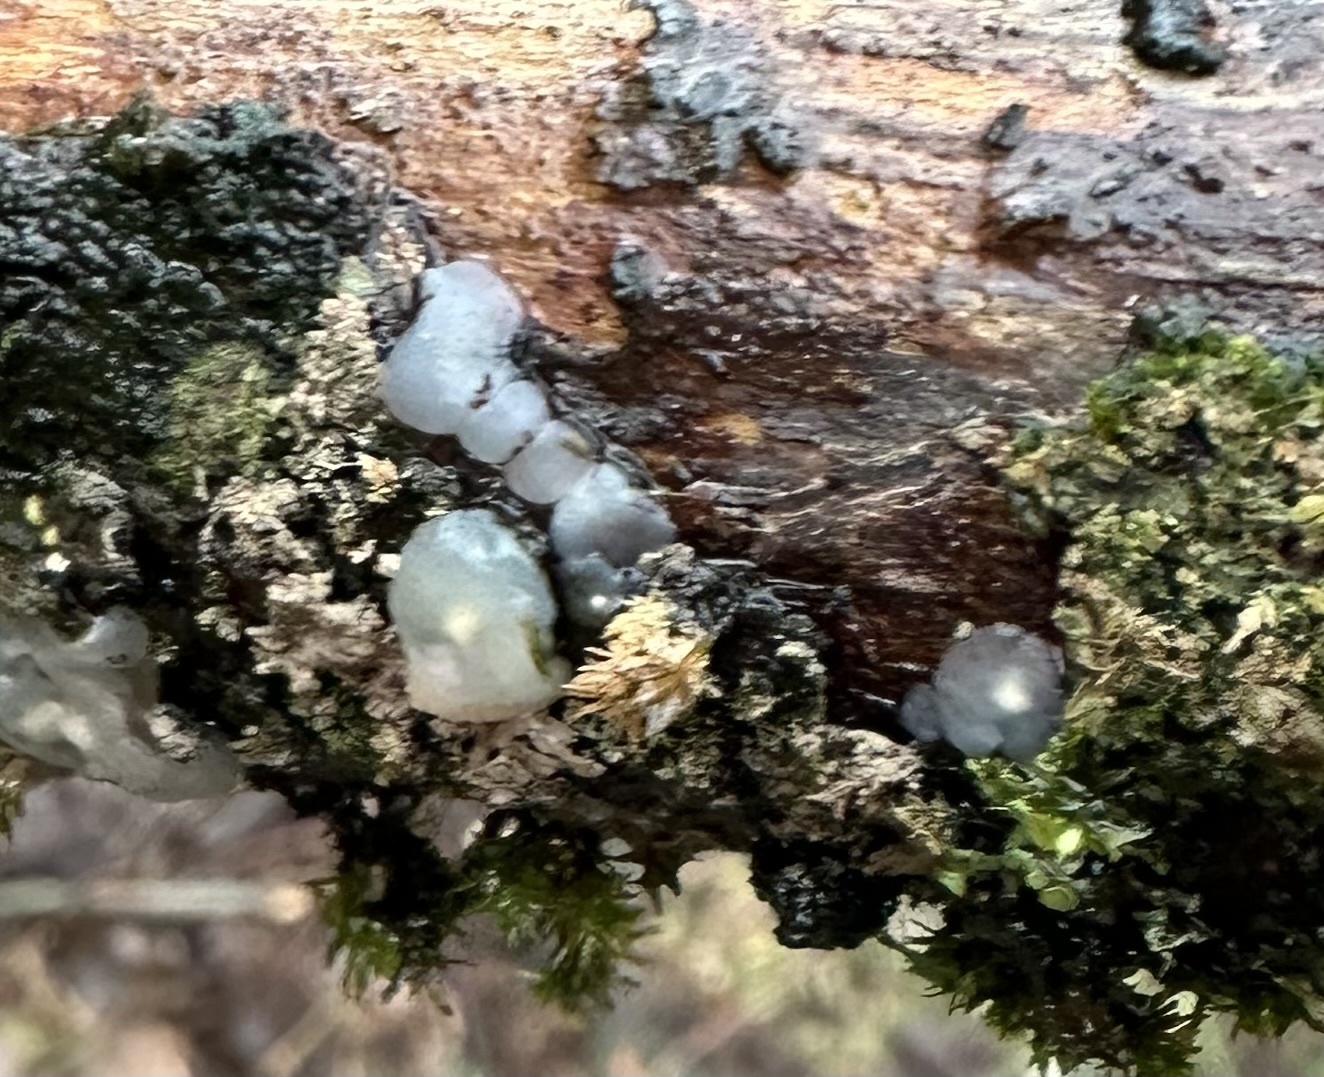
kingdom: Fungi
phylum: Basidiomycota
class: Agaricomycetes
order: Auriculariales
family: Hyaloriaceae
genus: Myxarium
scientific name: Myxarium nucleatum
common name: Crystal brain fungus
